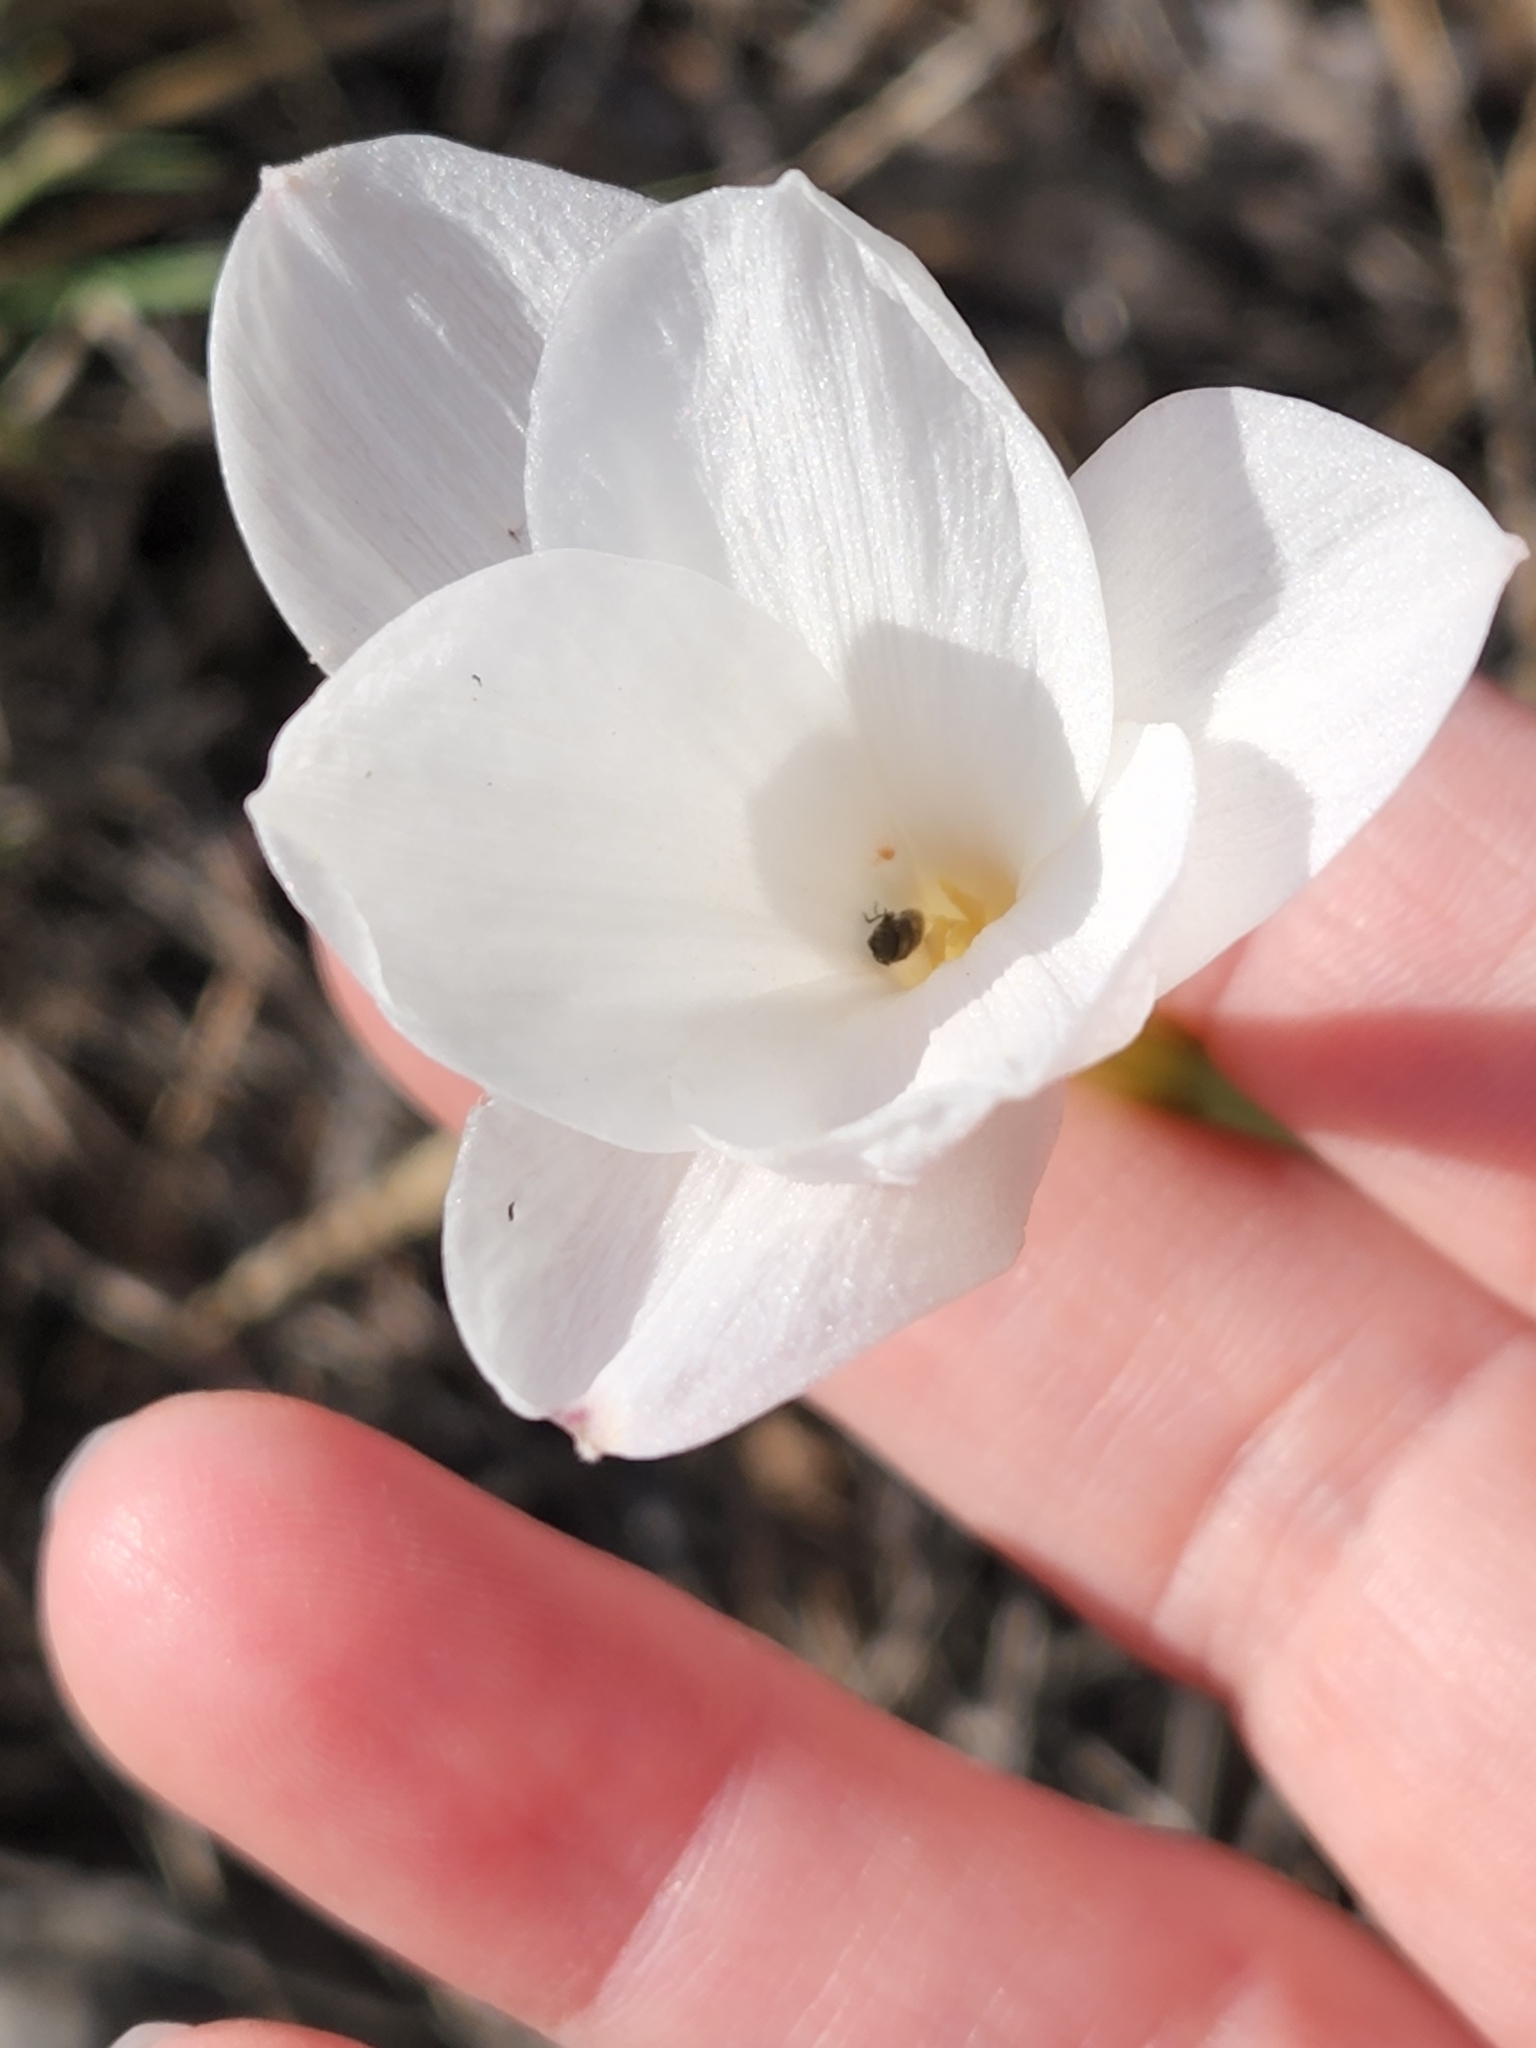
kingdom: Plantae
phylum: Tracheophyta
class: Liliopsida
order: Asparagales
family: Amaryllidaceae
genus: Zephyranthes
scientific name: Zephyranthes drummondii
